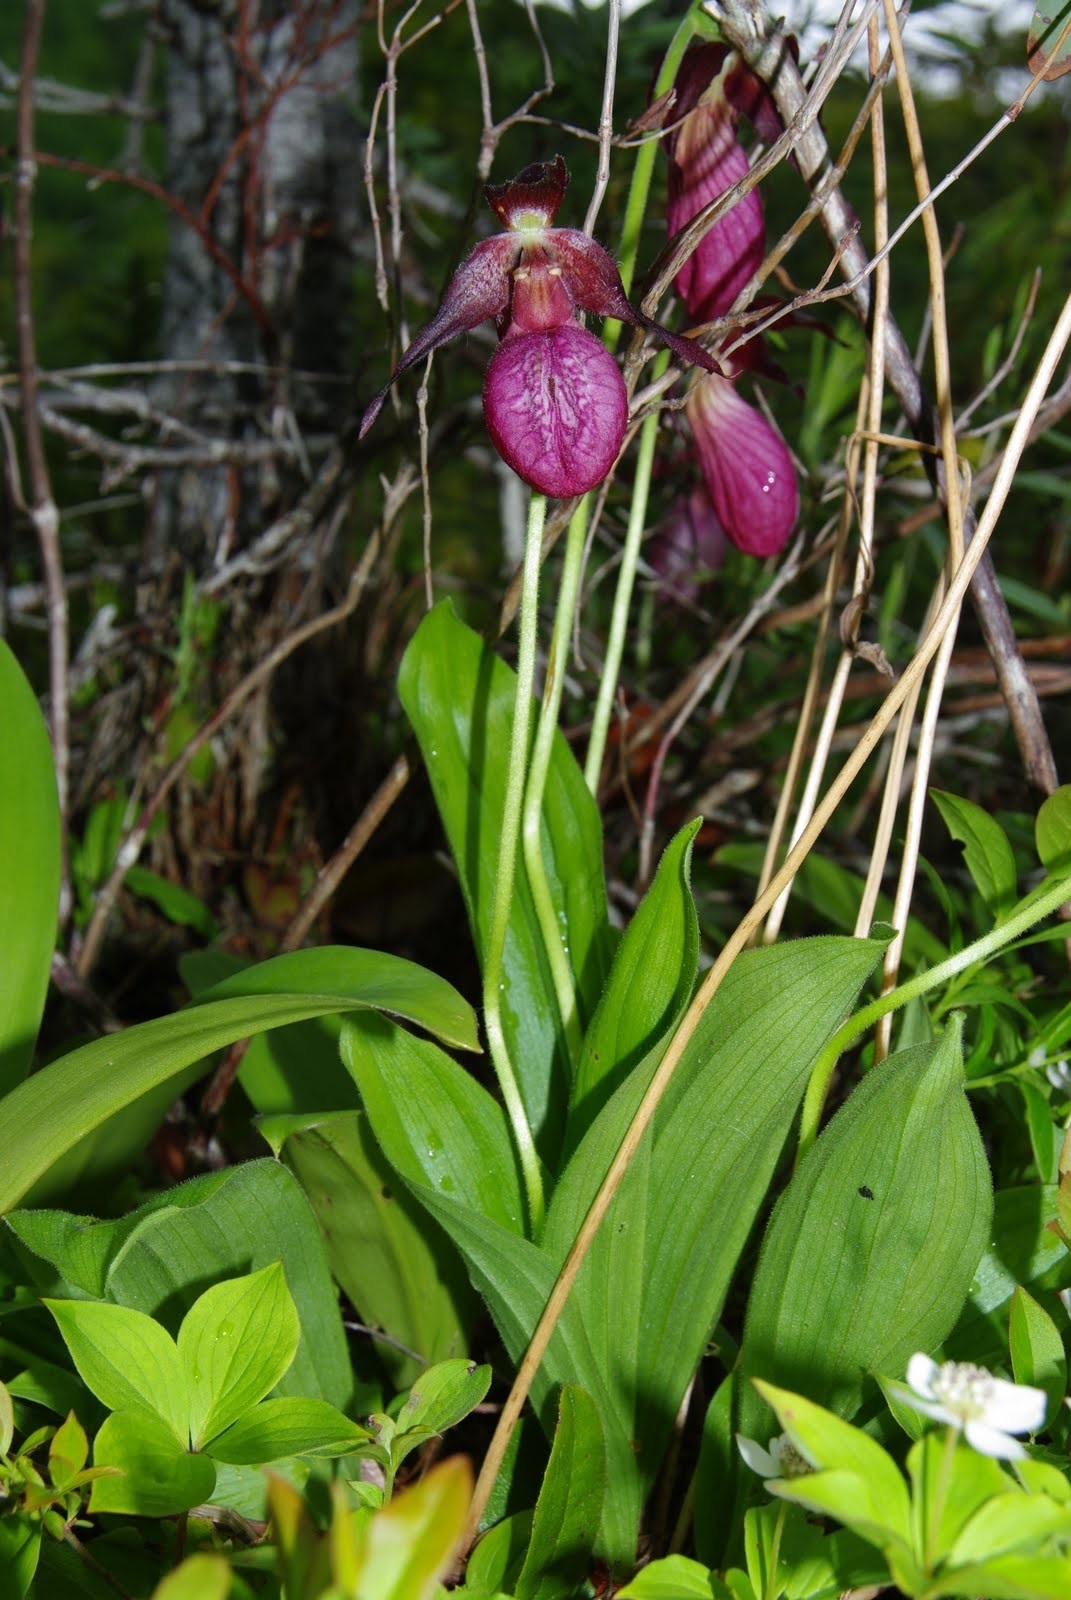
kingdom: Plantae
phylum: Tracheophyta
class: Liliopsida
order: Asparagales
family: Orchidaceae
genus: Cypripedium
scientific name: Cypripedium acaule
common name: Pink lady's-slipper
